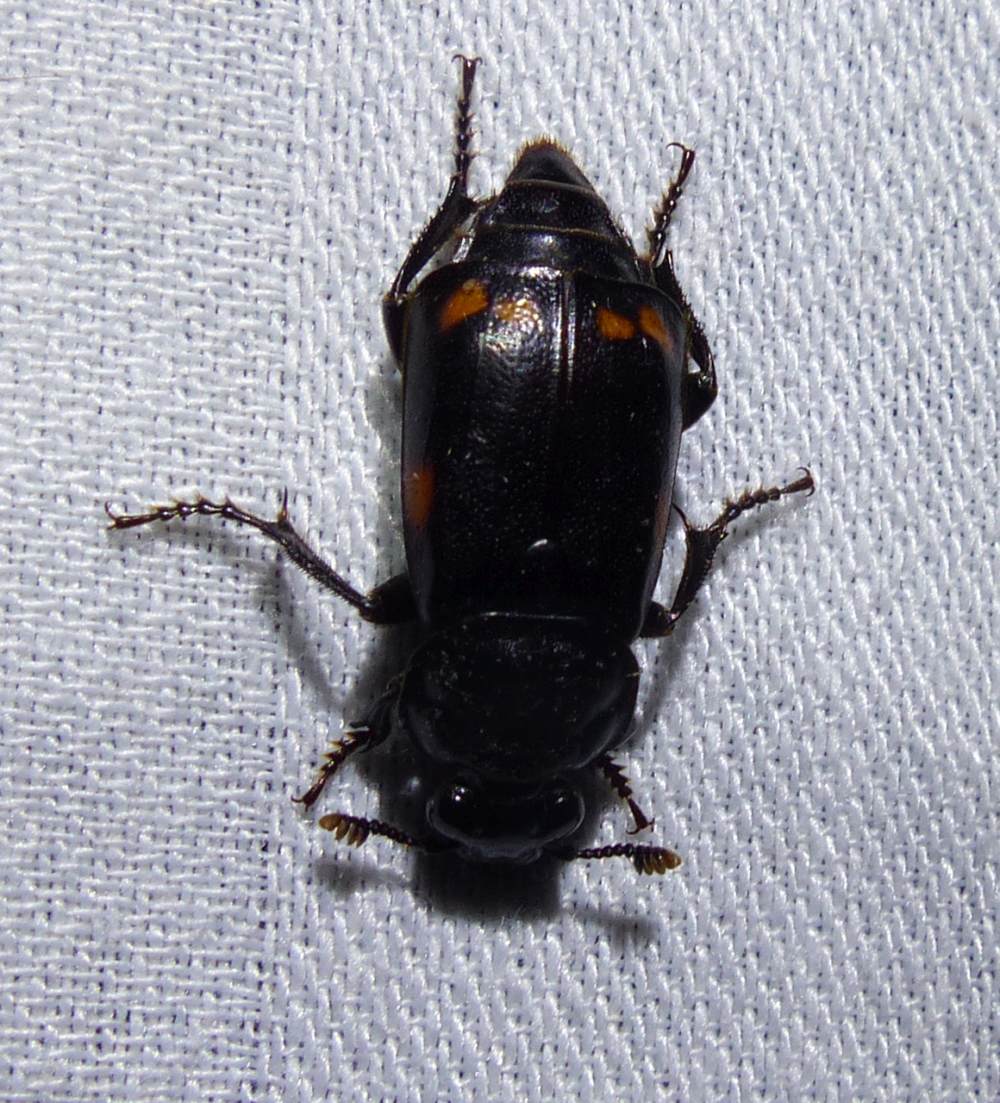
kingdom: Animalia
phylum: Arthropoda
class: Insecta
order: Coleoptera
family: Staphylinidae
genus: Nicrophorus
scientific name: Nicrophorus pustulatus
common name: Pustulated carrion beetle
